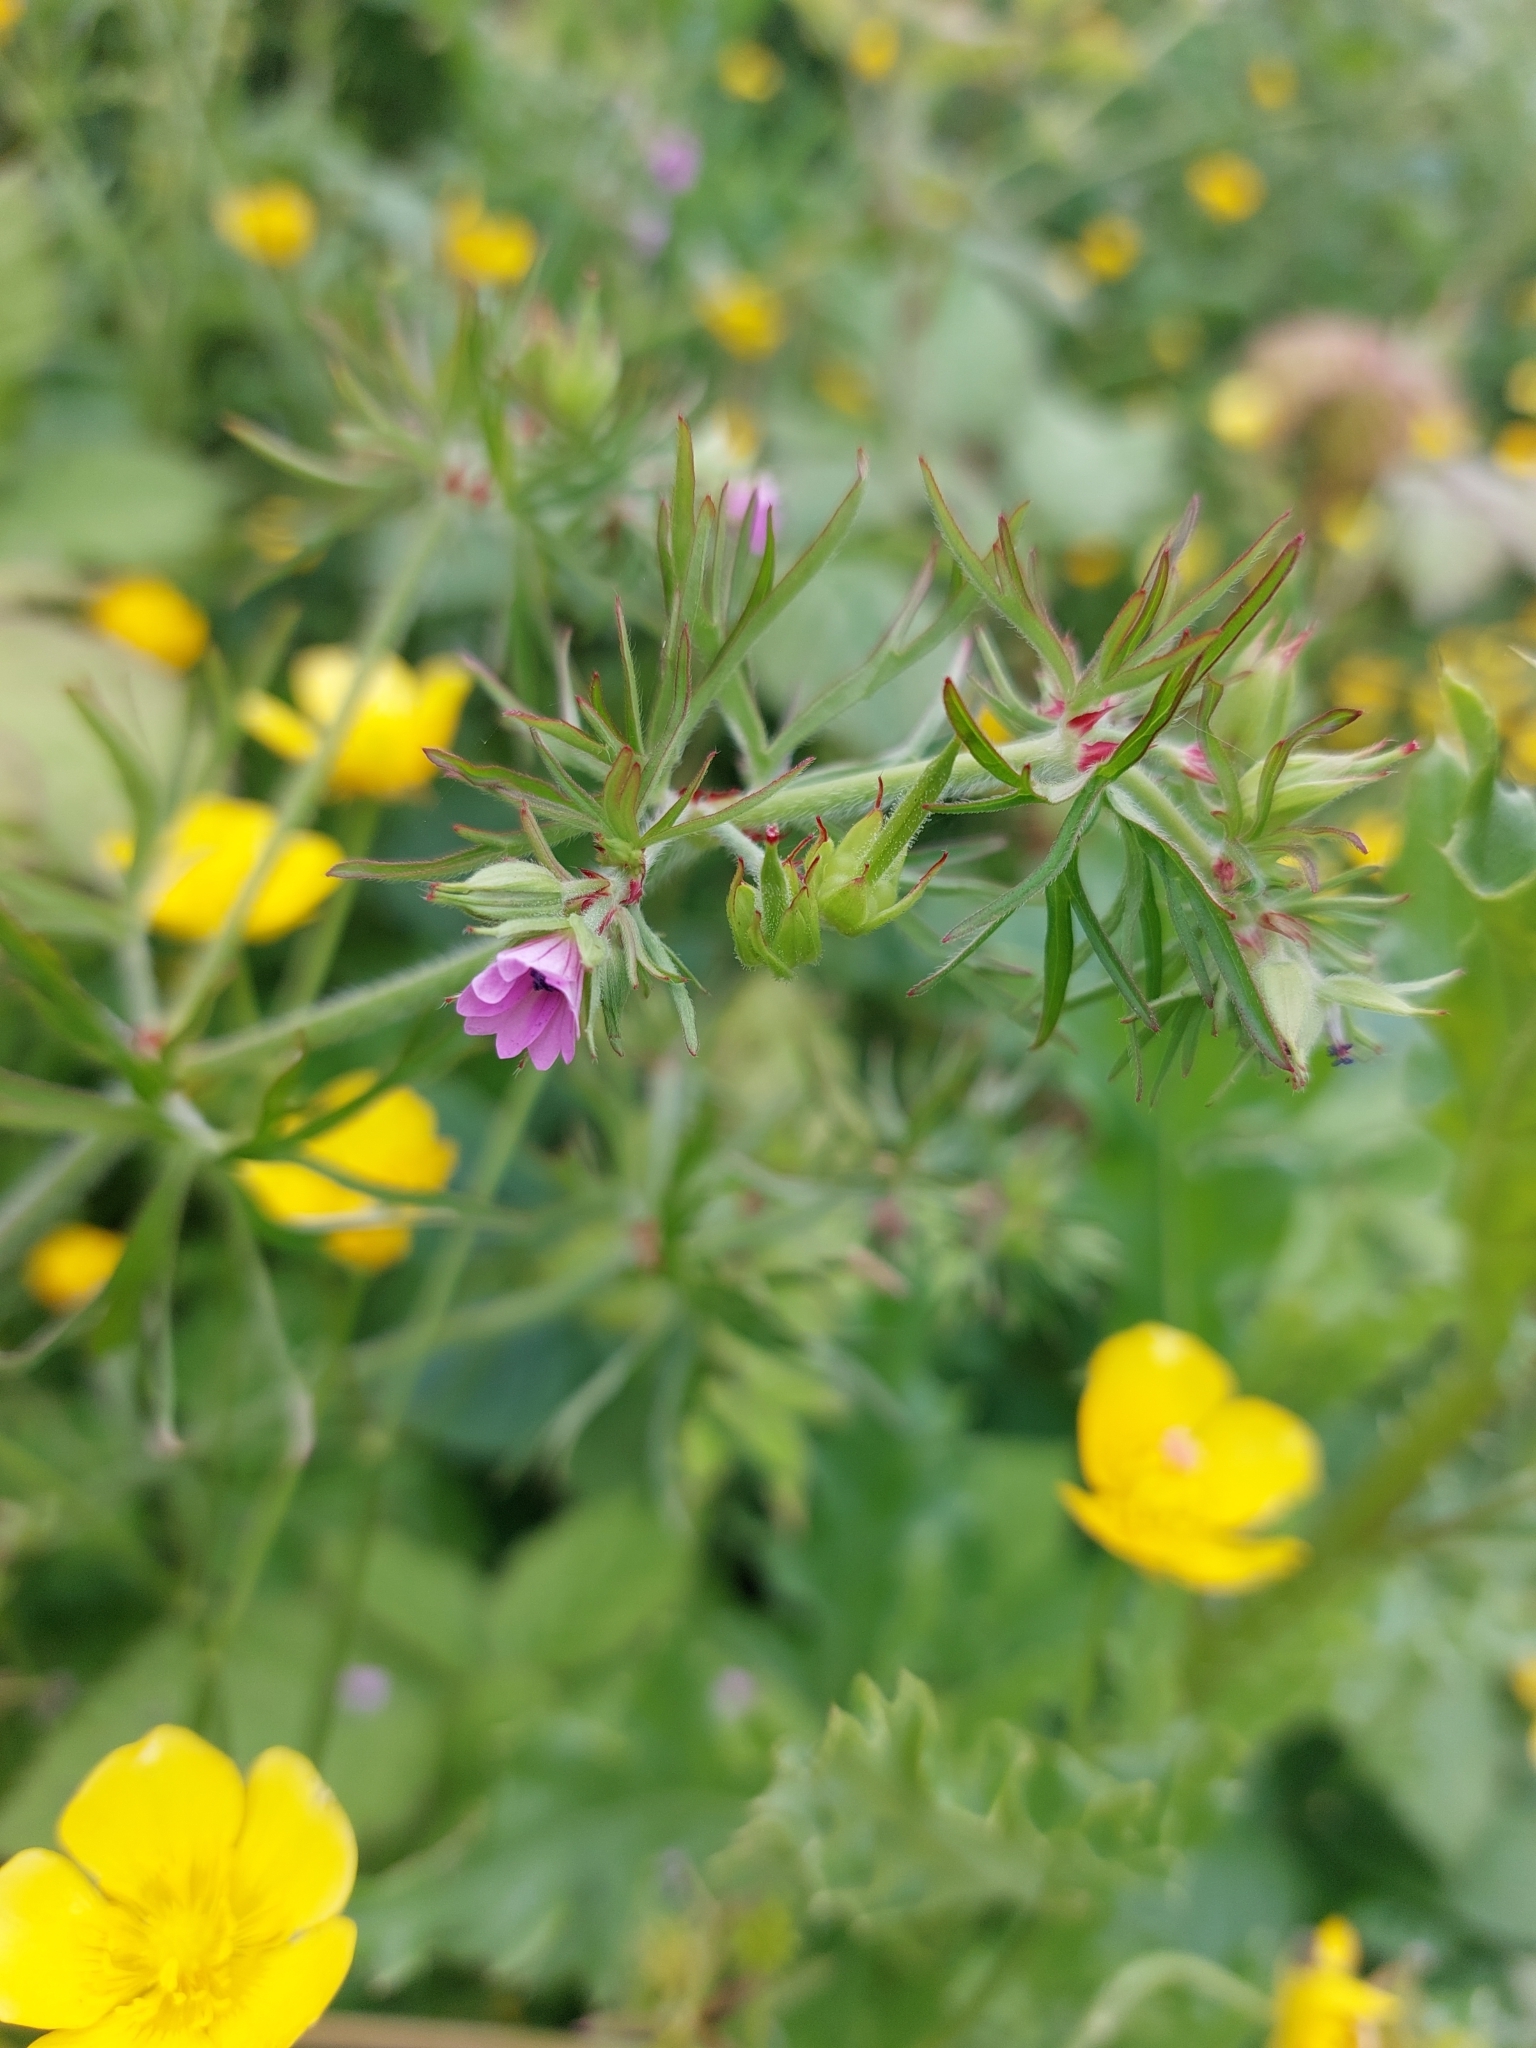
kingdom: Plantae
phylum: Tracheophyta
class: Magnoliopsida
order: Geraniales
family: Geraniaceae
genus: Geranium
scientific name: Geranium dissectum
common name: Cut-leaved crane's-bill
